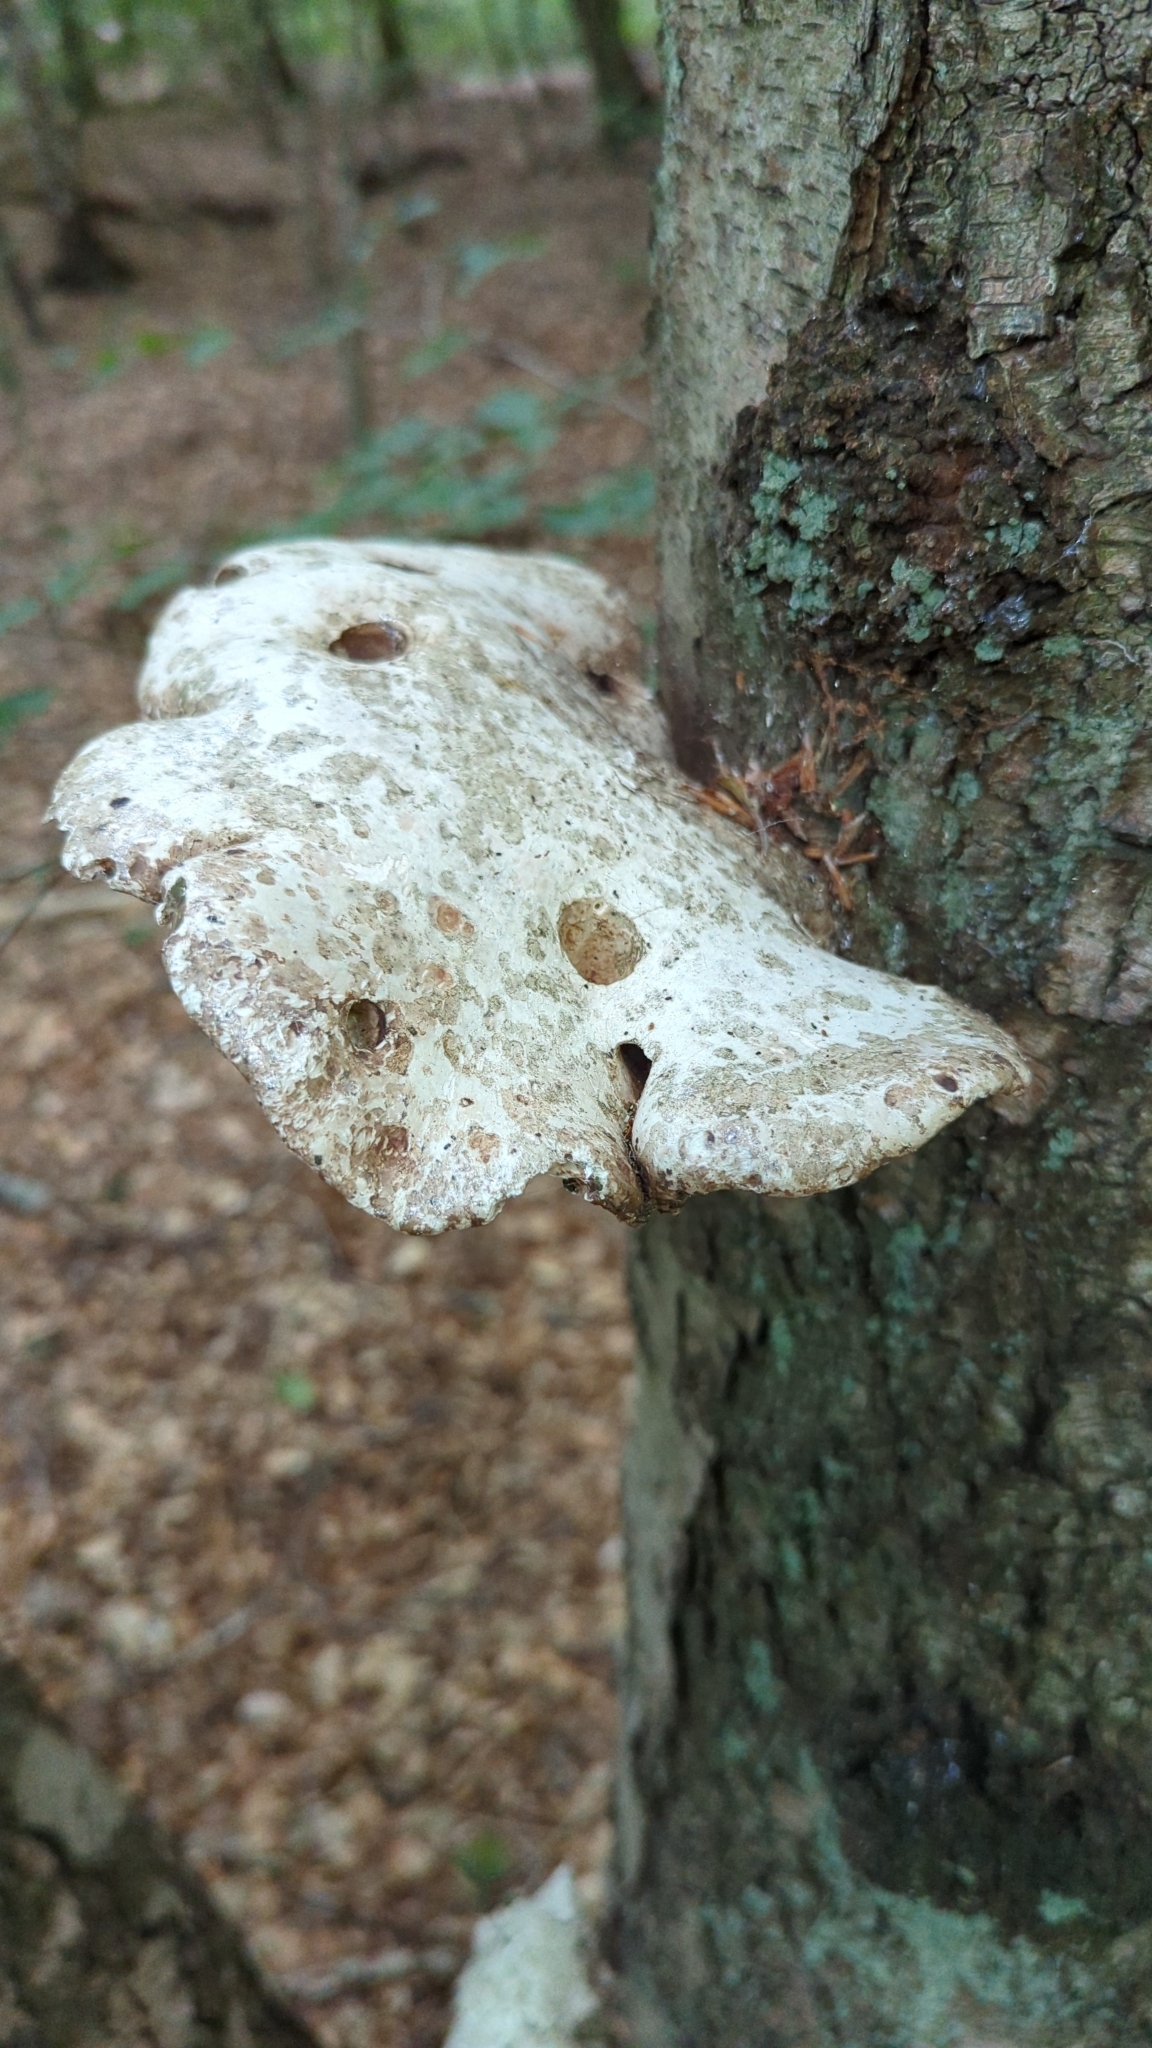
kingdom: Fungi
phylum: Basidiomycota
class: Agaricomycetes
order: Polyporales
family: Fomitopsidaceae
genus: Fomitopsis
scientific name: Fomitopsis betulina
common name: Birch polypore
